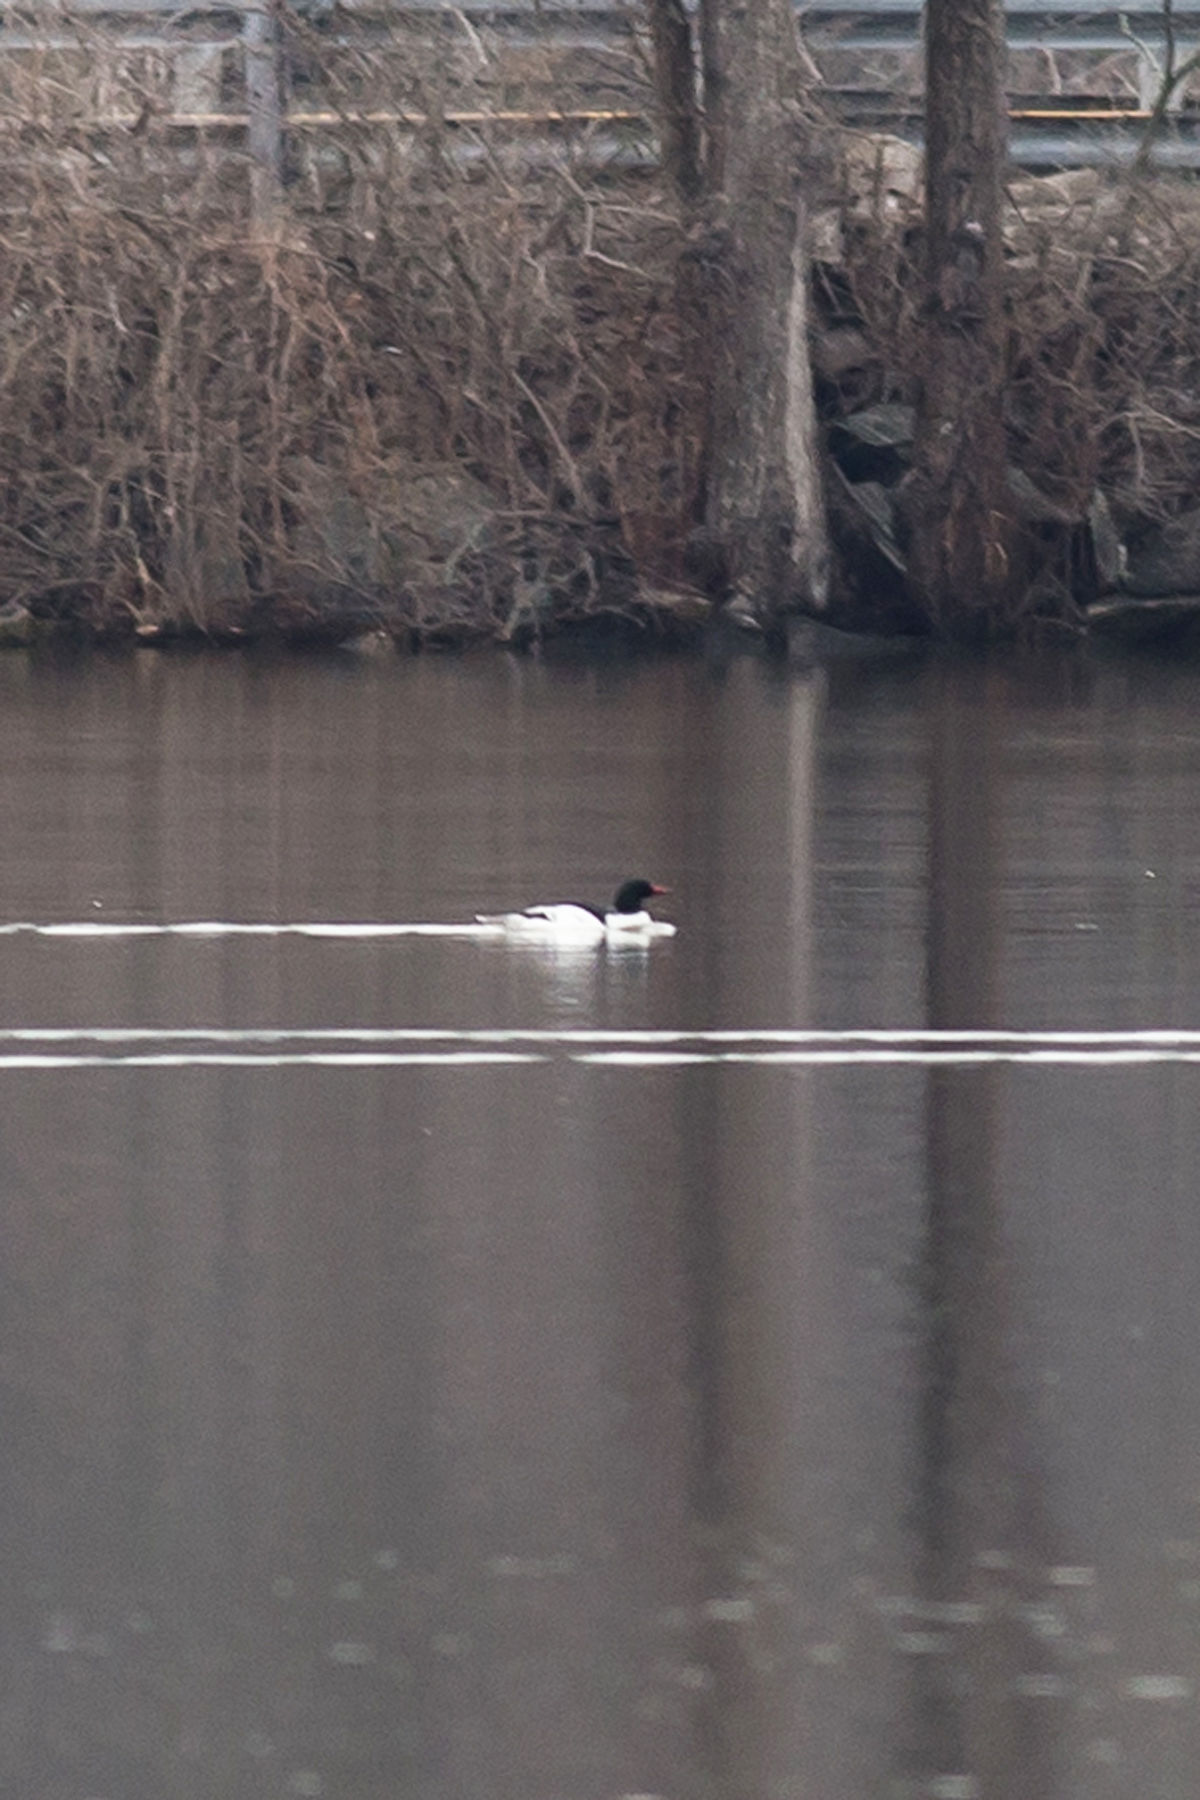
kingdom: Animalia
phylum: Chordata
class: Aves
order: Anseriformes
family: Anatidae
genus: Mergus
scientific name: Mergus merganser
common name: Common merganser
